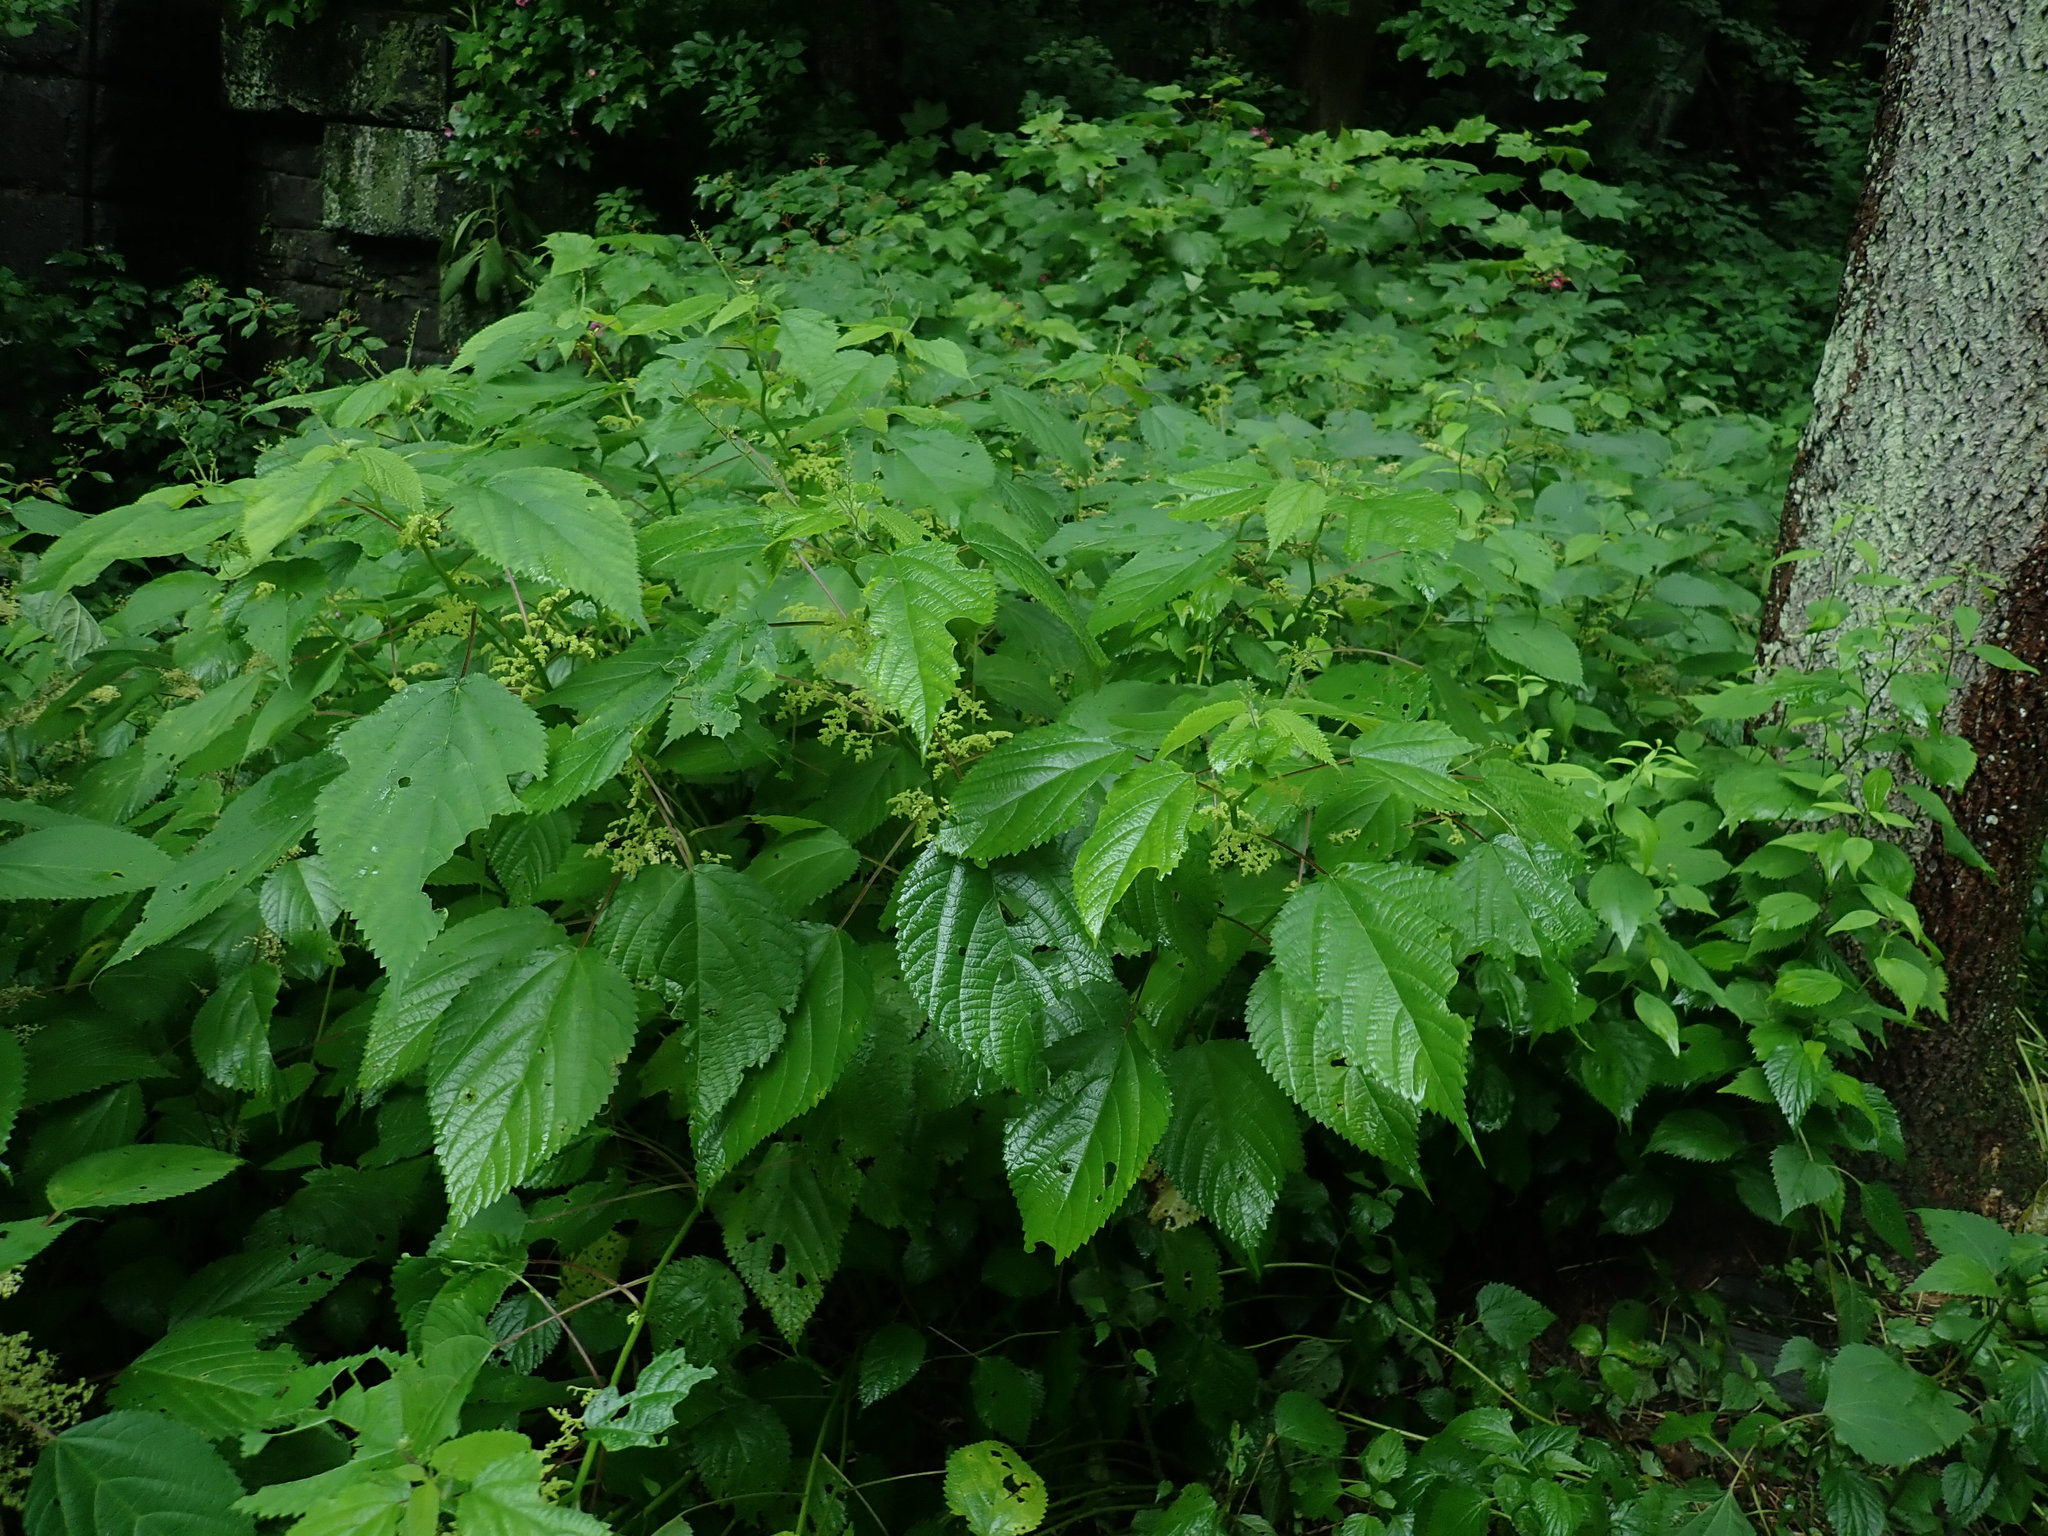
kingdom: Plantae
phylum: Tracheophyta
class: Magnoliopsida
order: Rosales
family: Urticaceae
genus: Laportea
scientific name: Laportea canadensis
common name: Canada nettle
